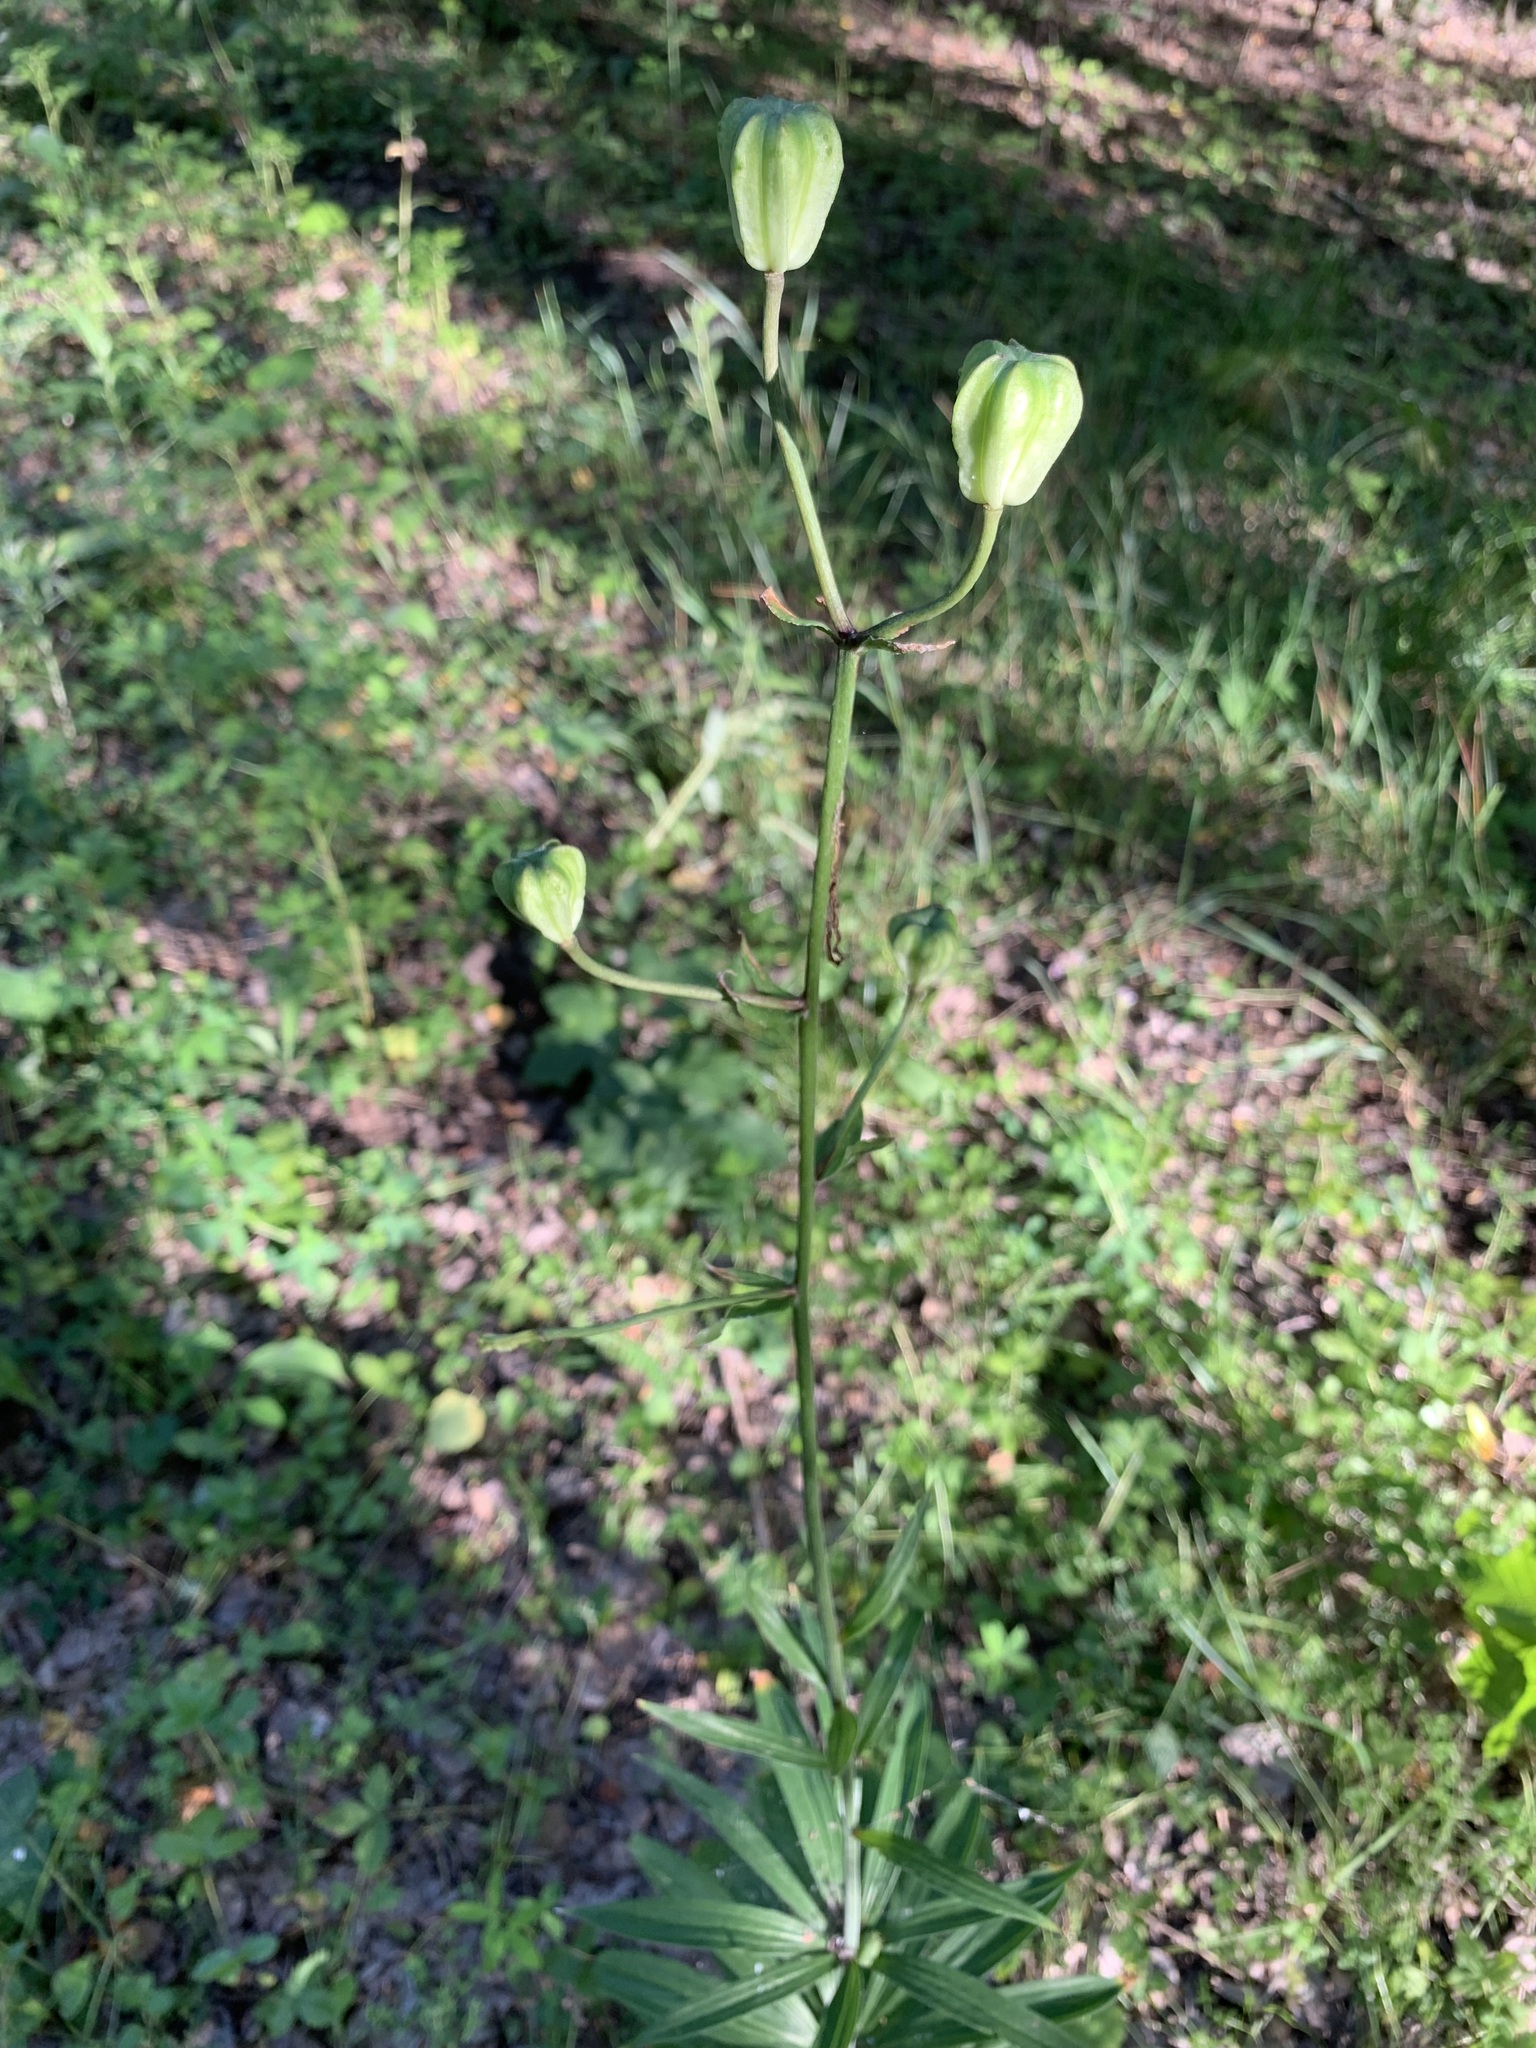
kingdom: Plantae
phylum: Tracheophyta
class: Liliopsida
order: Liliales
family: Liliaceae
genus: Lilium
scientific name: Lilium martagon
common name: Martagon lily
